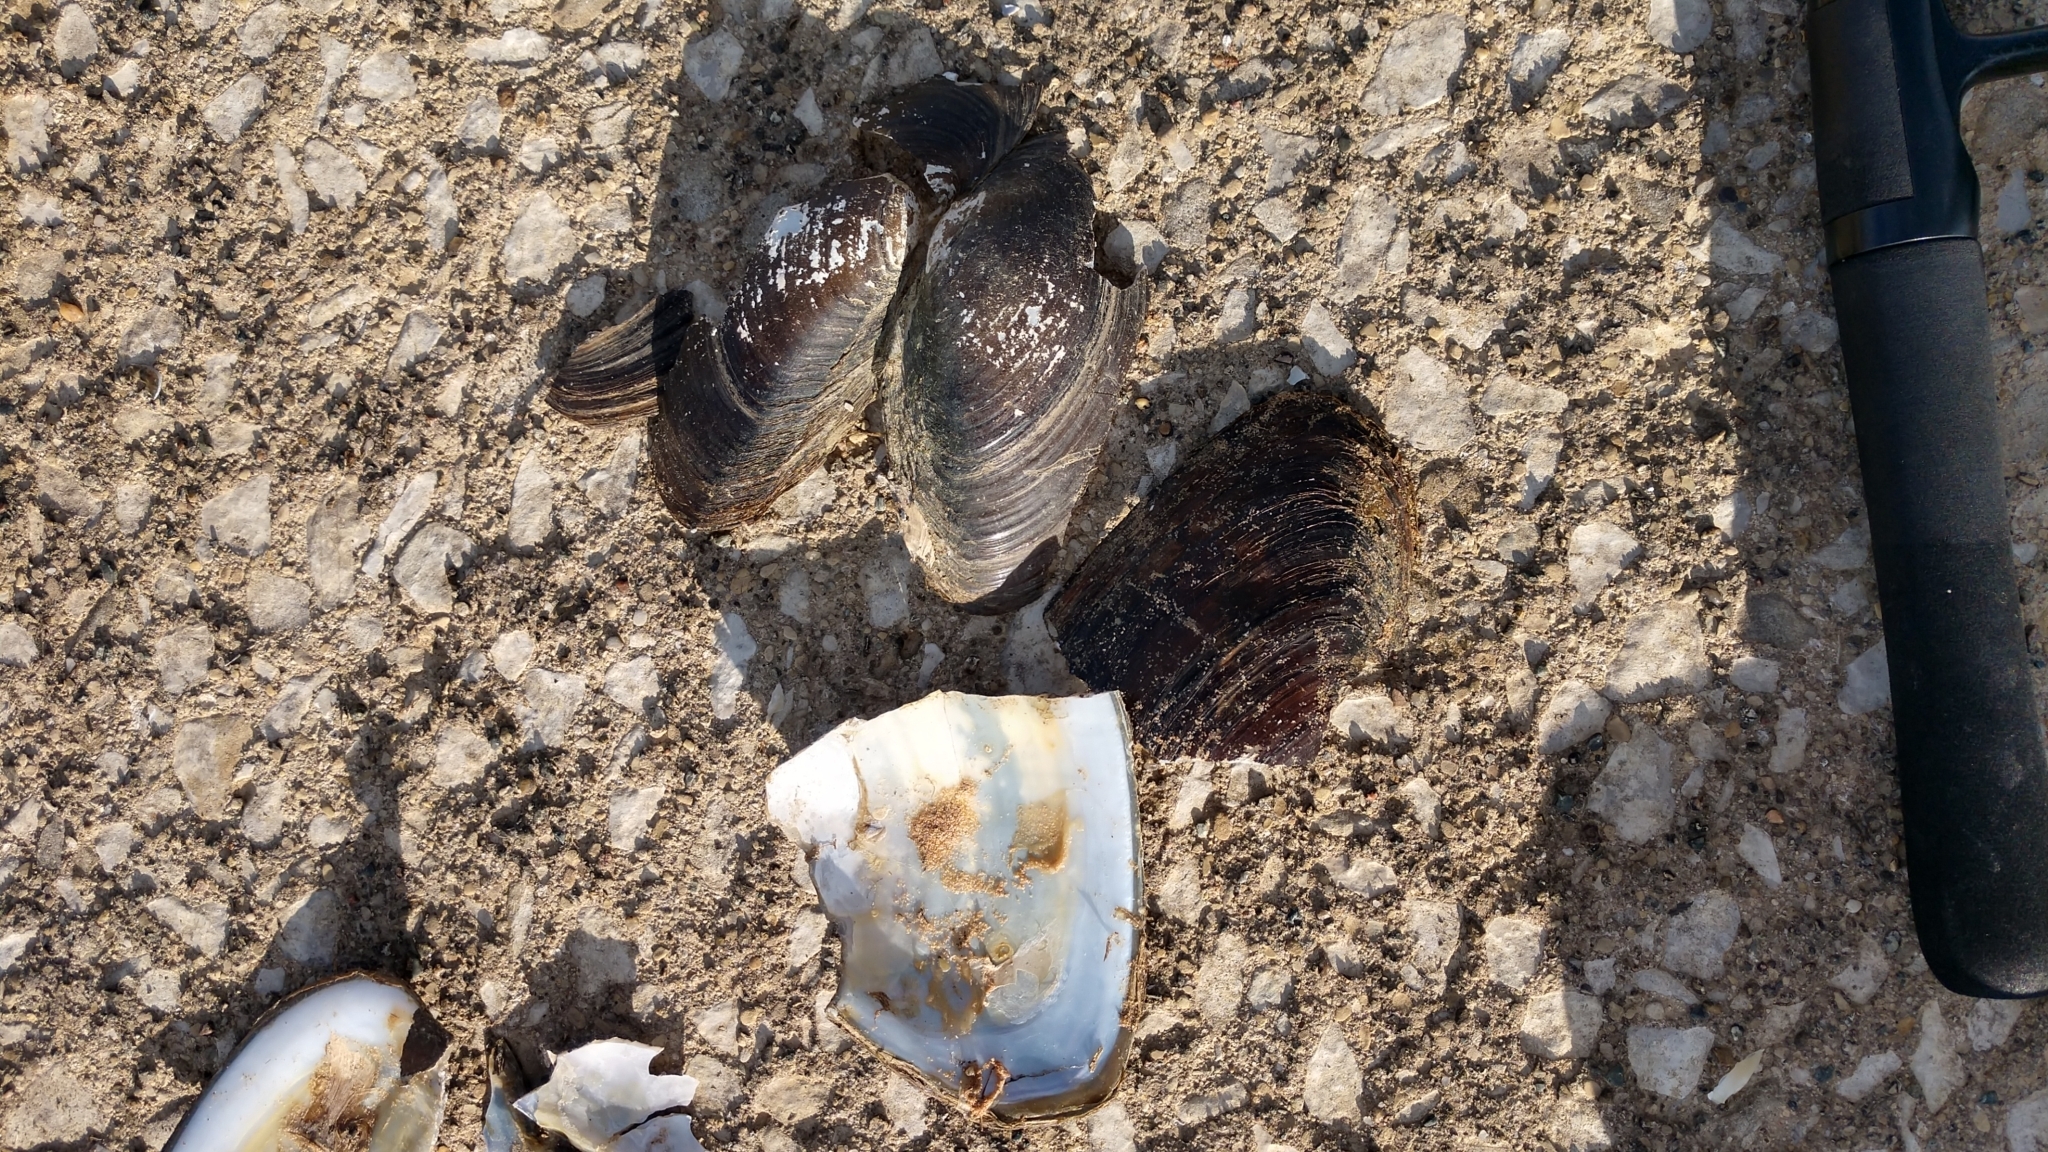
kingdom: Animalia
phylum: Mollusca
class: Bivalvia
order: Unionida
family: Unionidae
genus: Pyganodon
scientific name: Pyganodon grandis
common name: Giant floater
